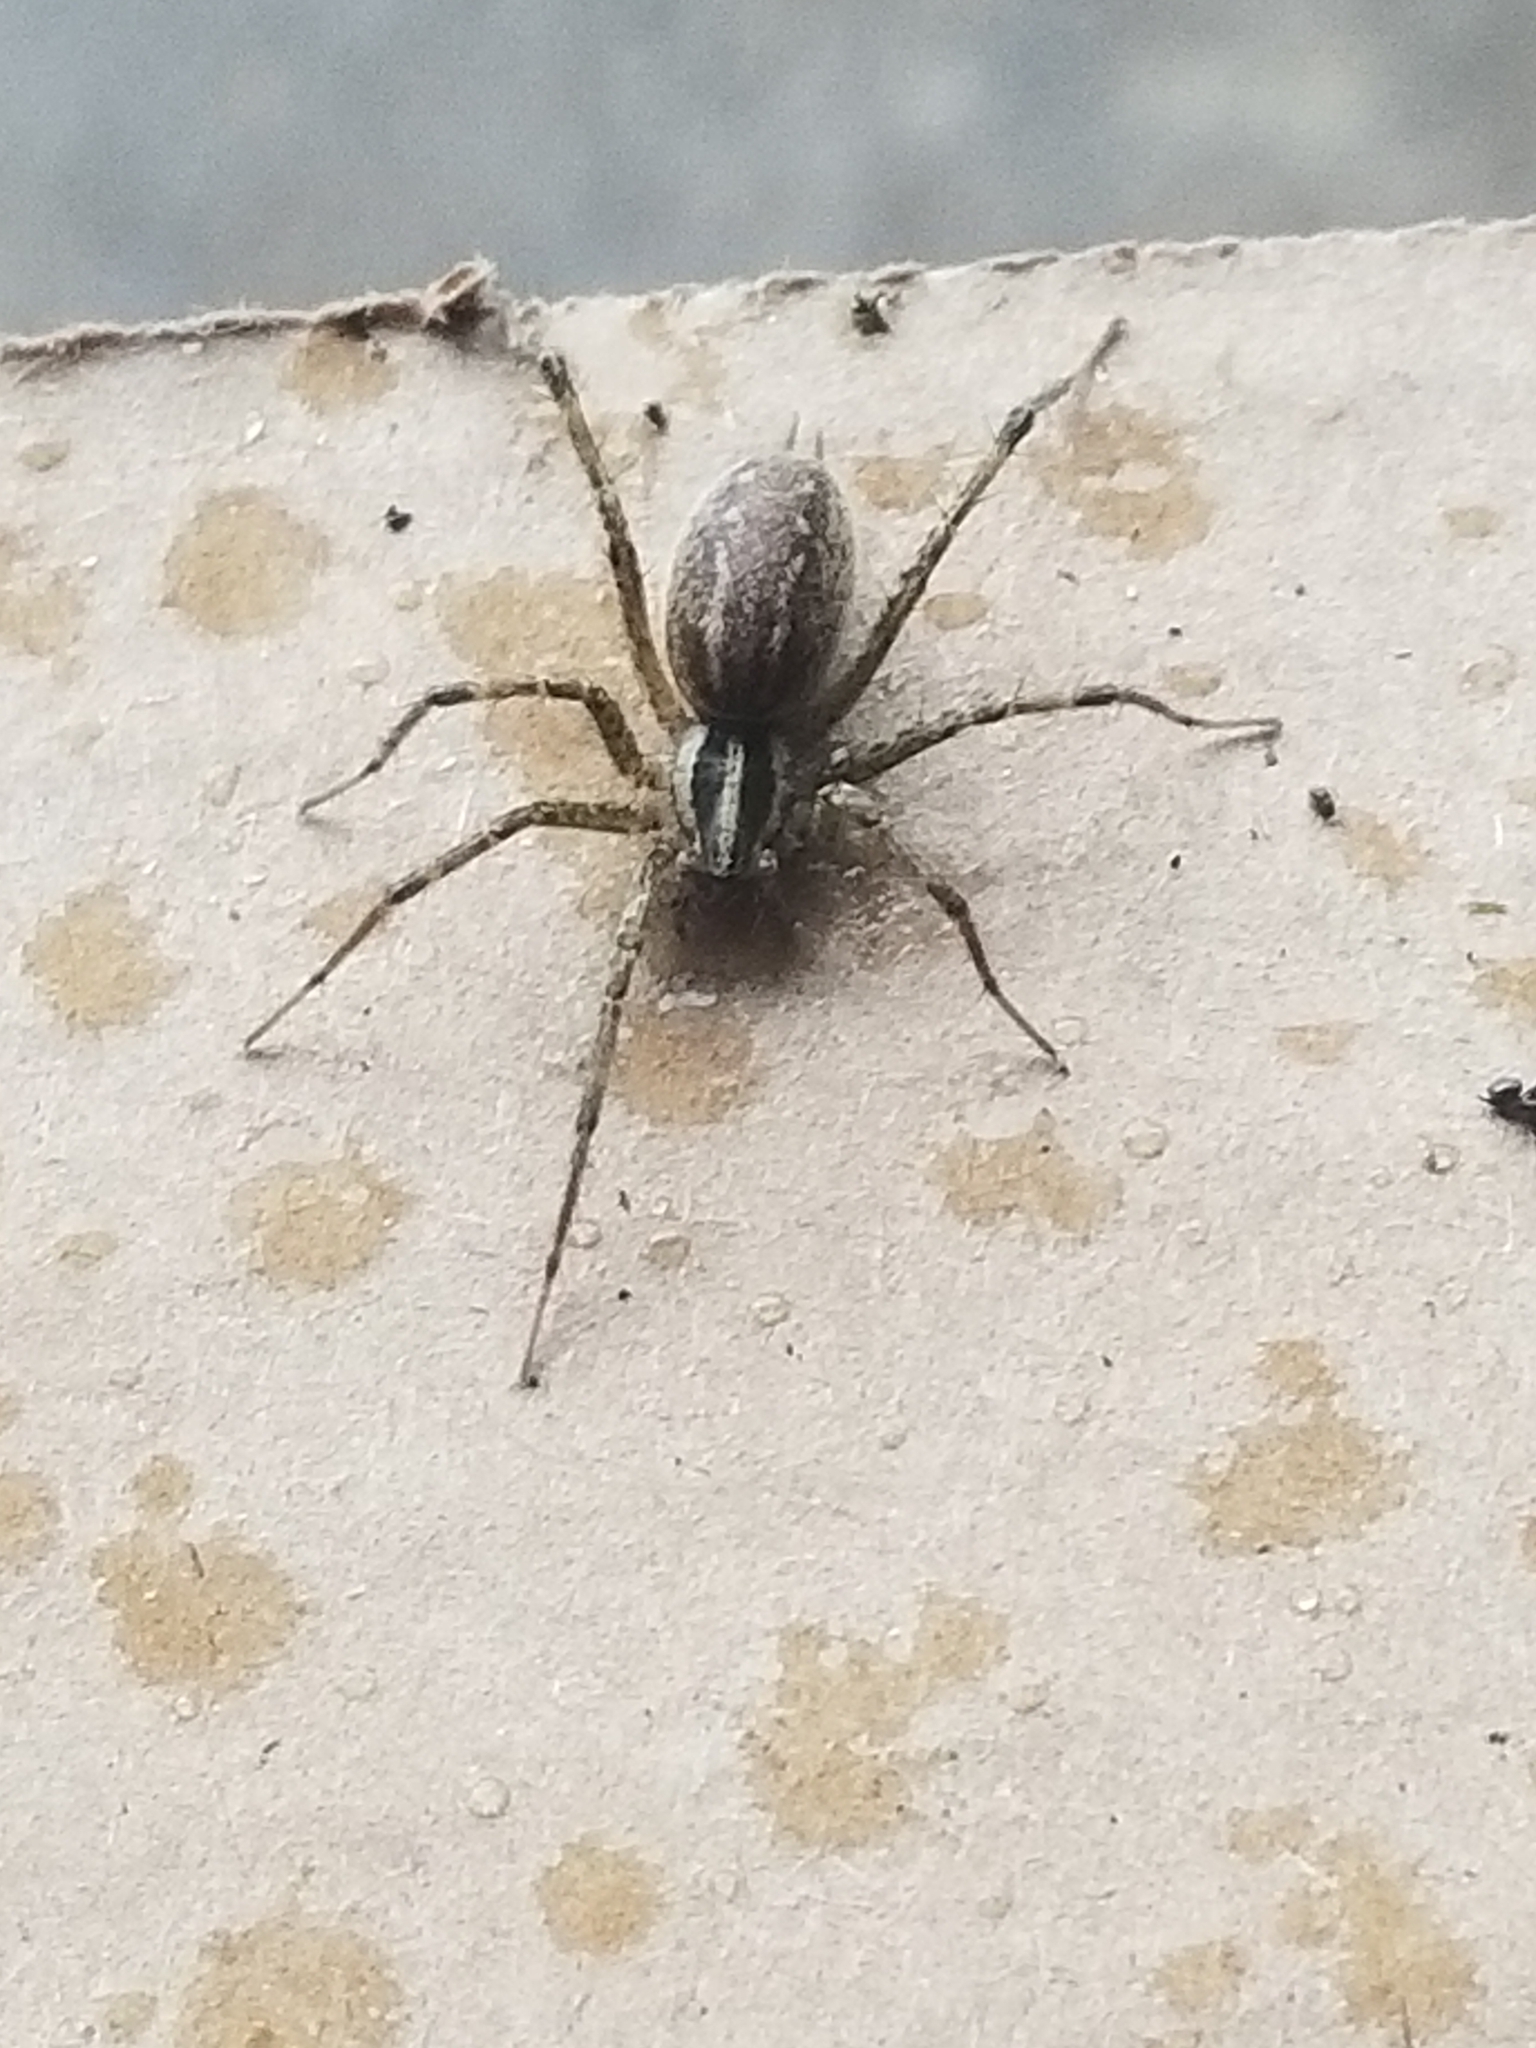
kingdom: Animalia
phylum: Arthropoda
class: Arachnida
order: Araneae
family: Agelenidae
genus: Agelenopsis
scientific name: Agelenopsis
